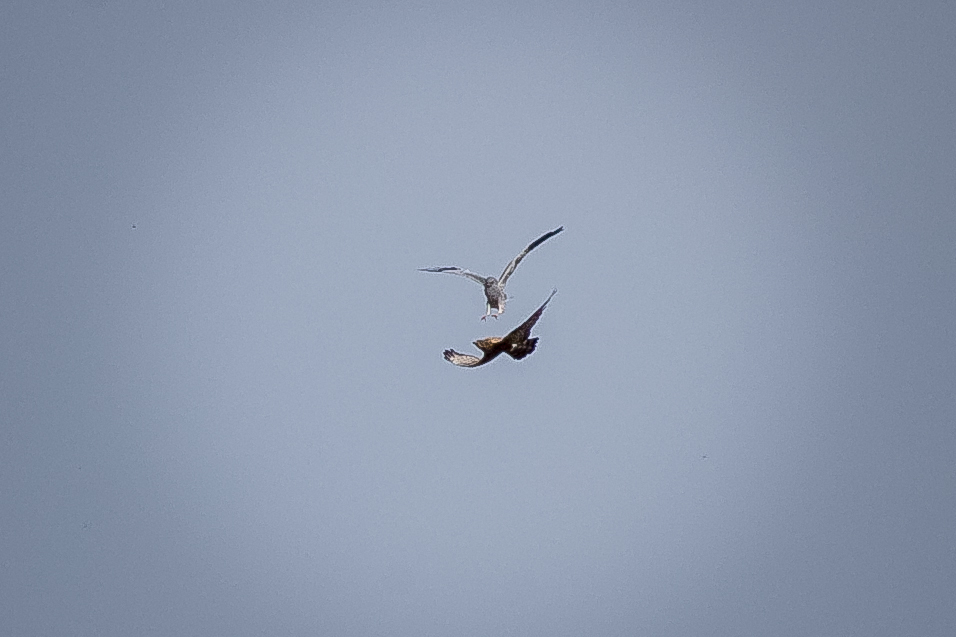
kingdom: Animalia
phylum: Chordata
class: Aves
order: Accipitriformes
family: Accipitridae
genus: Circus
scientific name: Circus pygargus
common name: Montagu's harrier
